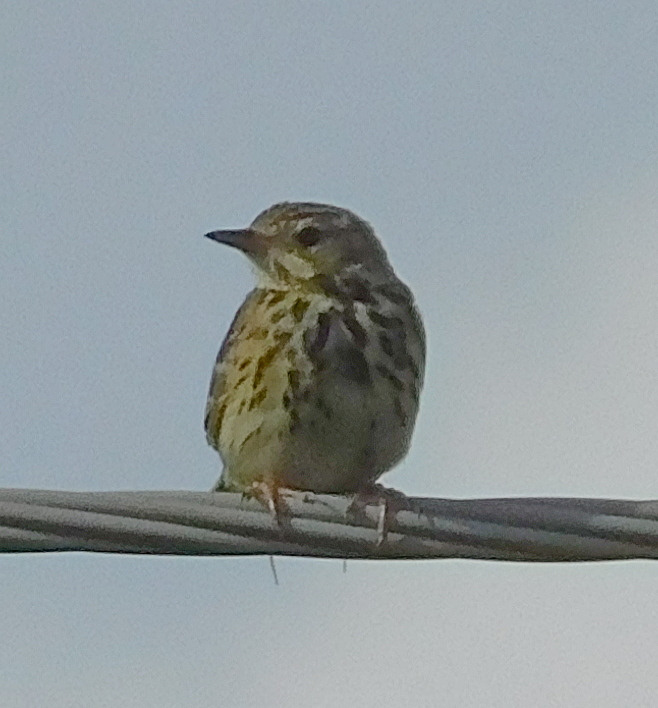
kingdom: Animalia
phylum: Chordata
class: Aves
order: Passeriformes
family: Motacillidae
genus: Anthus
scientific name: Anthus trivialis
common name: Tree pipit
